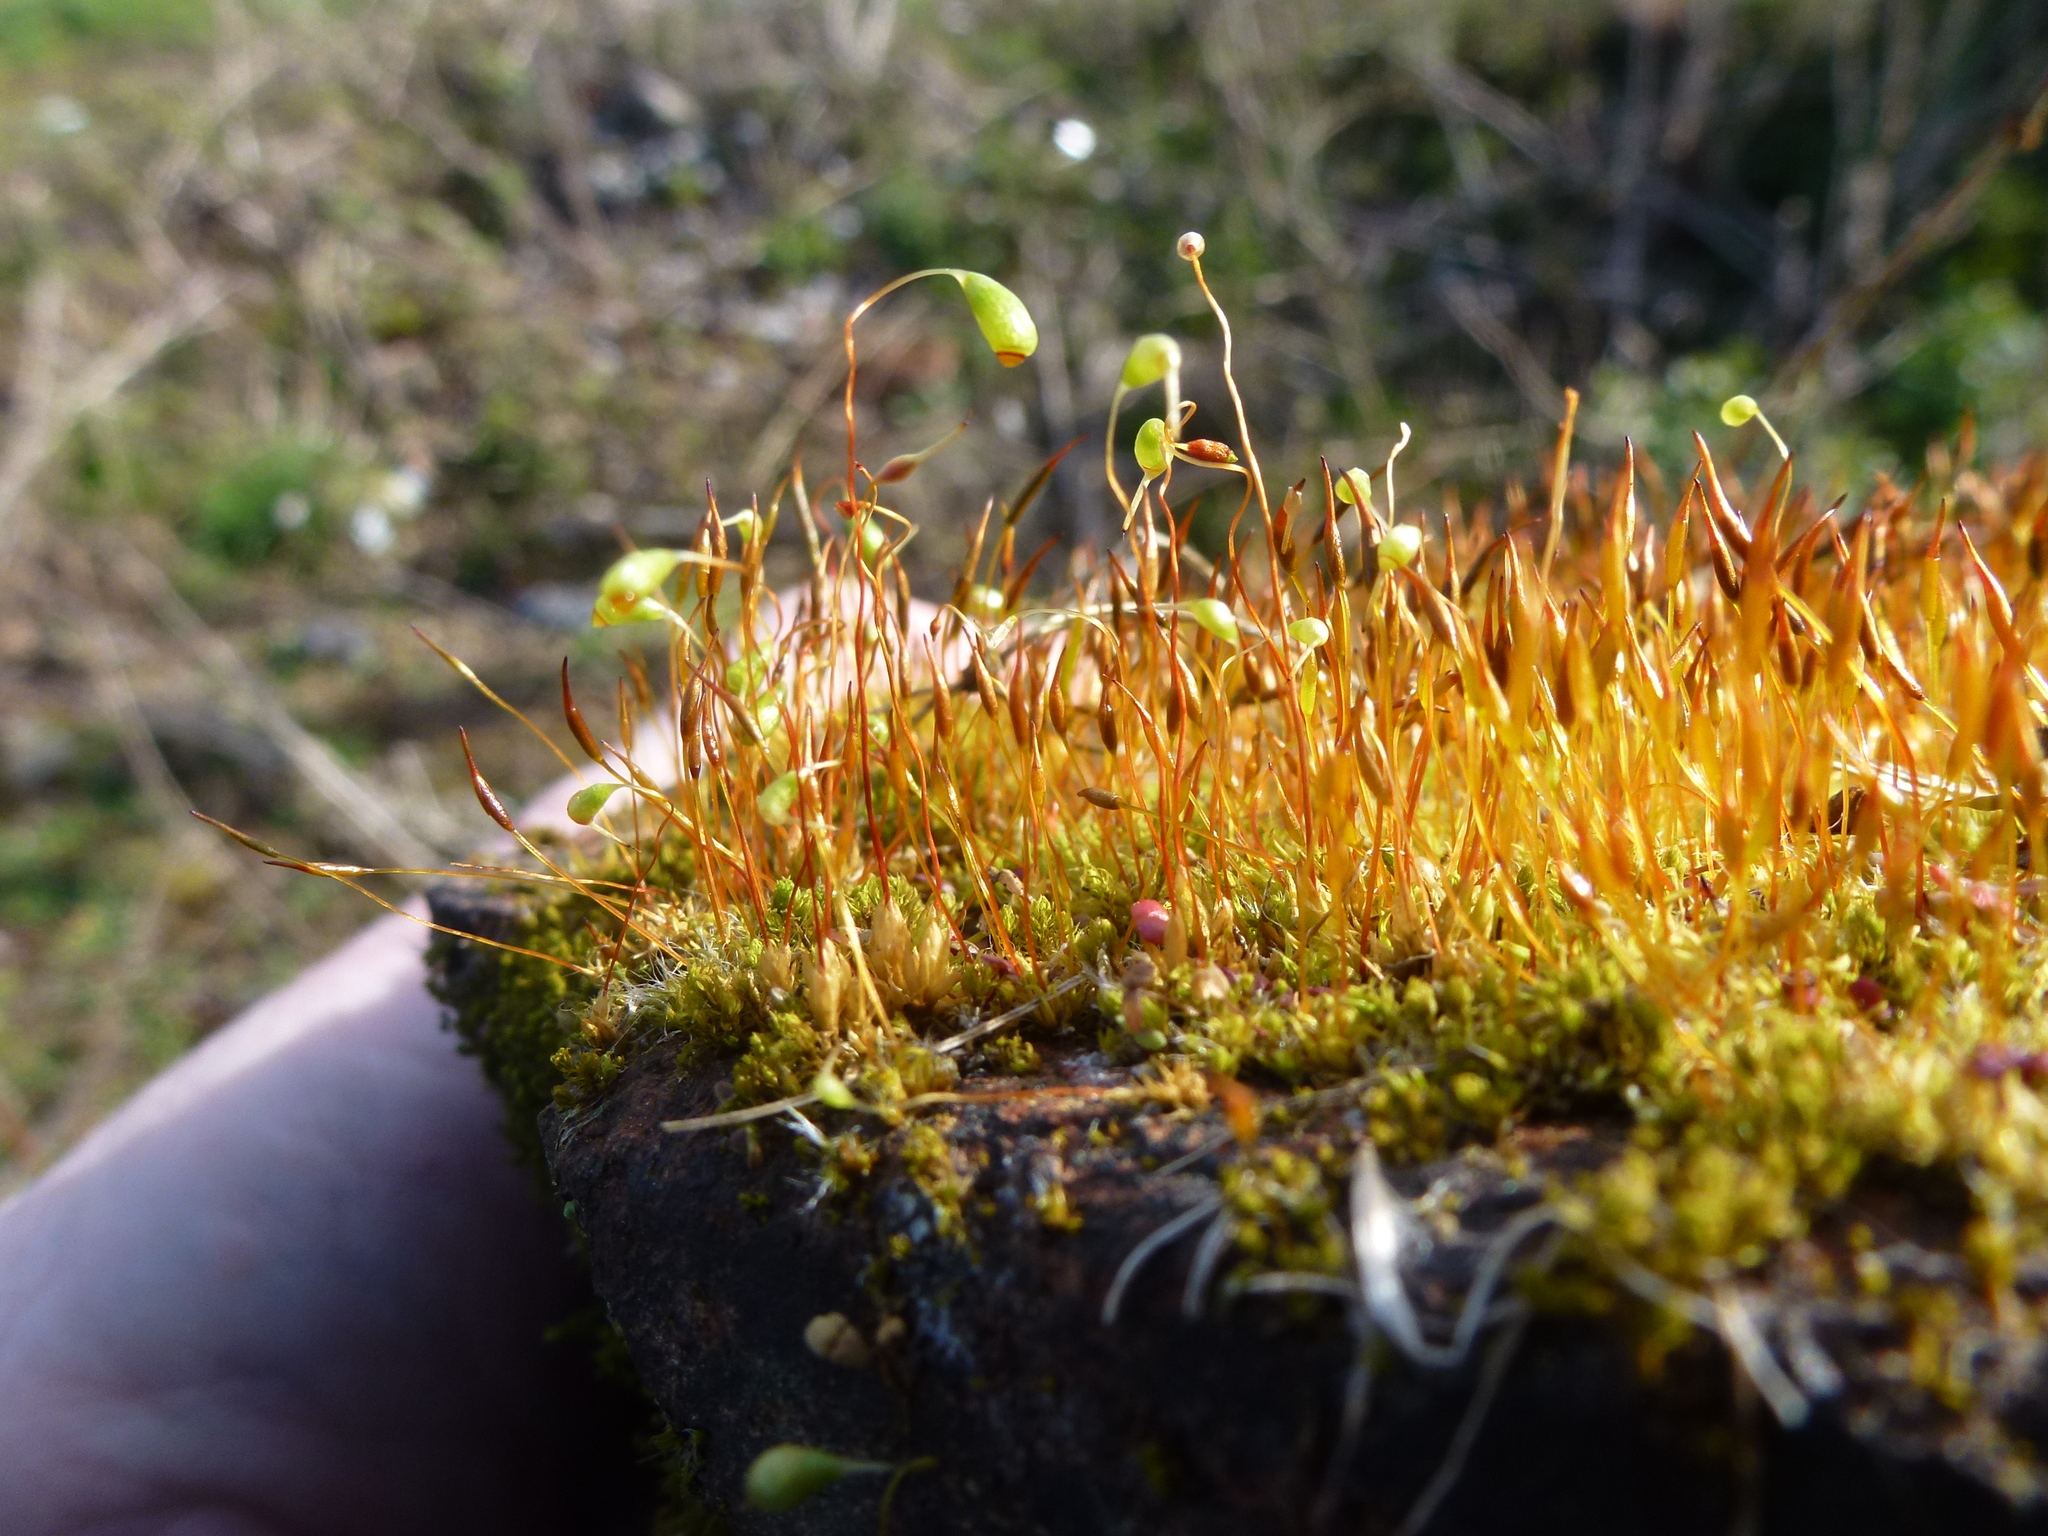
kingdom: Plantae
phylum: Bryophyta
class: Bryopsida
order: Pottiales
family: Pottiaceae
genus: Tortula
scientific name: Tortula muralis
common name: Wall screw-moss
